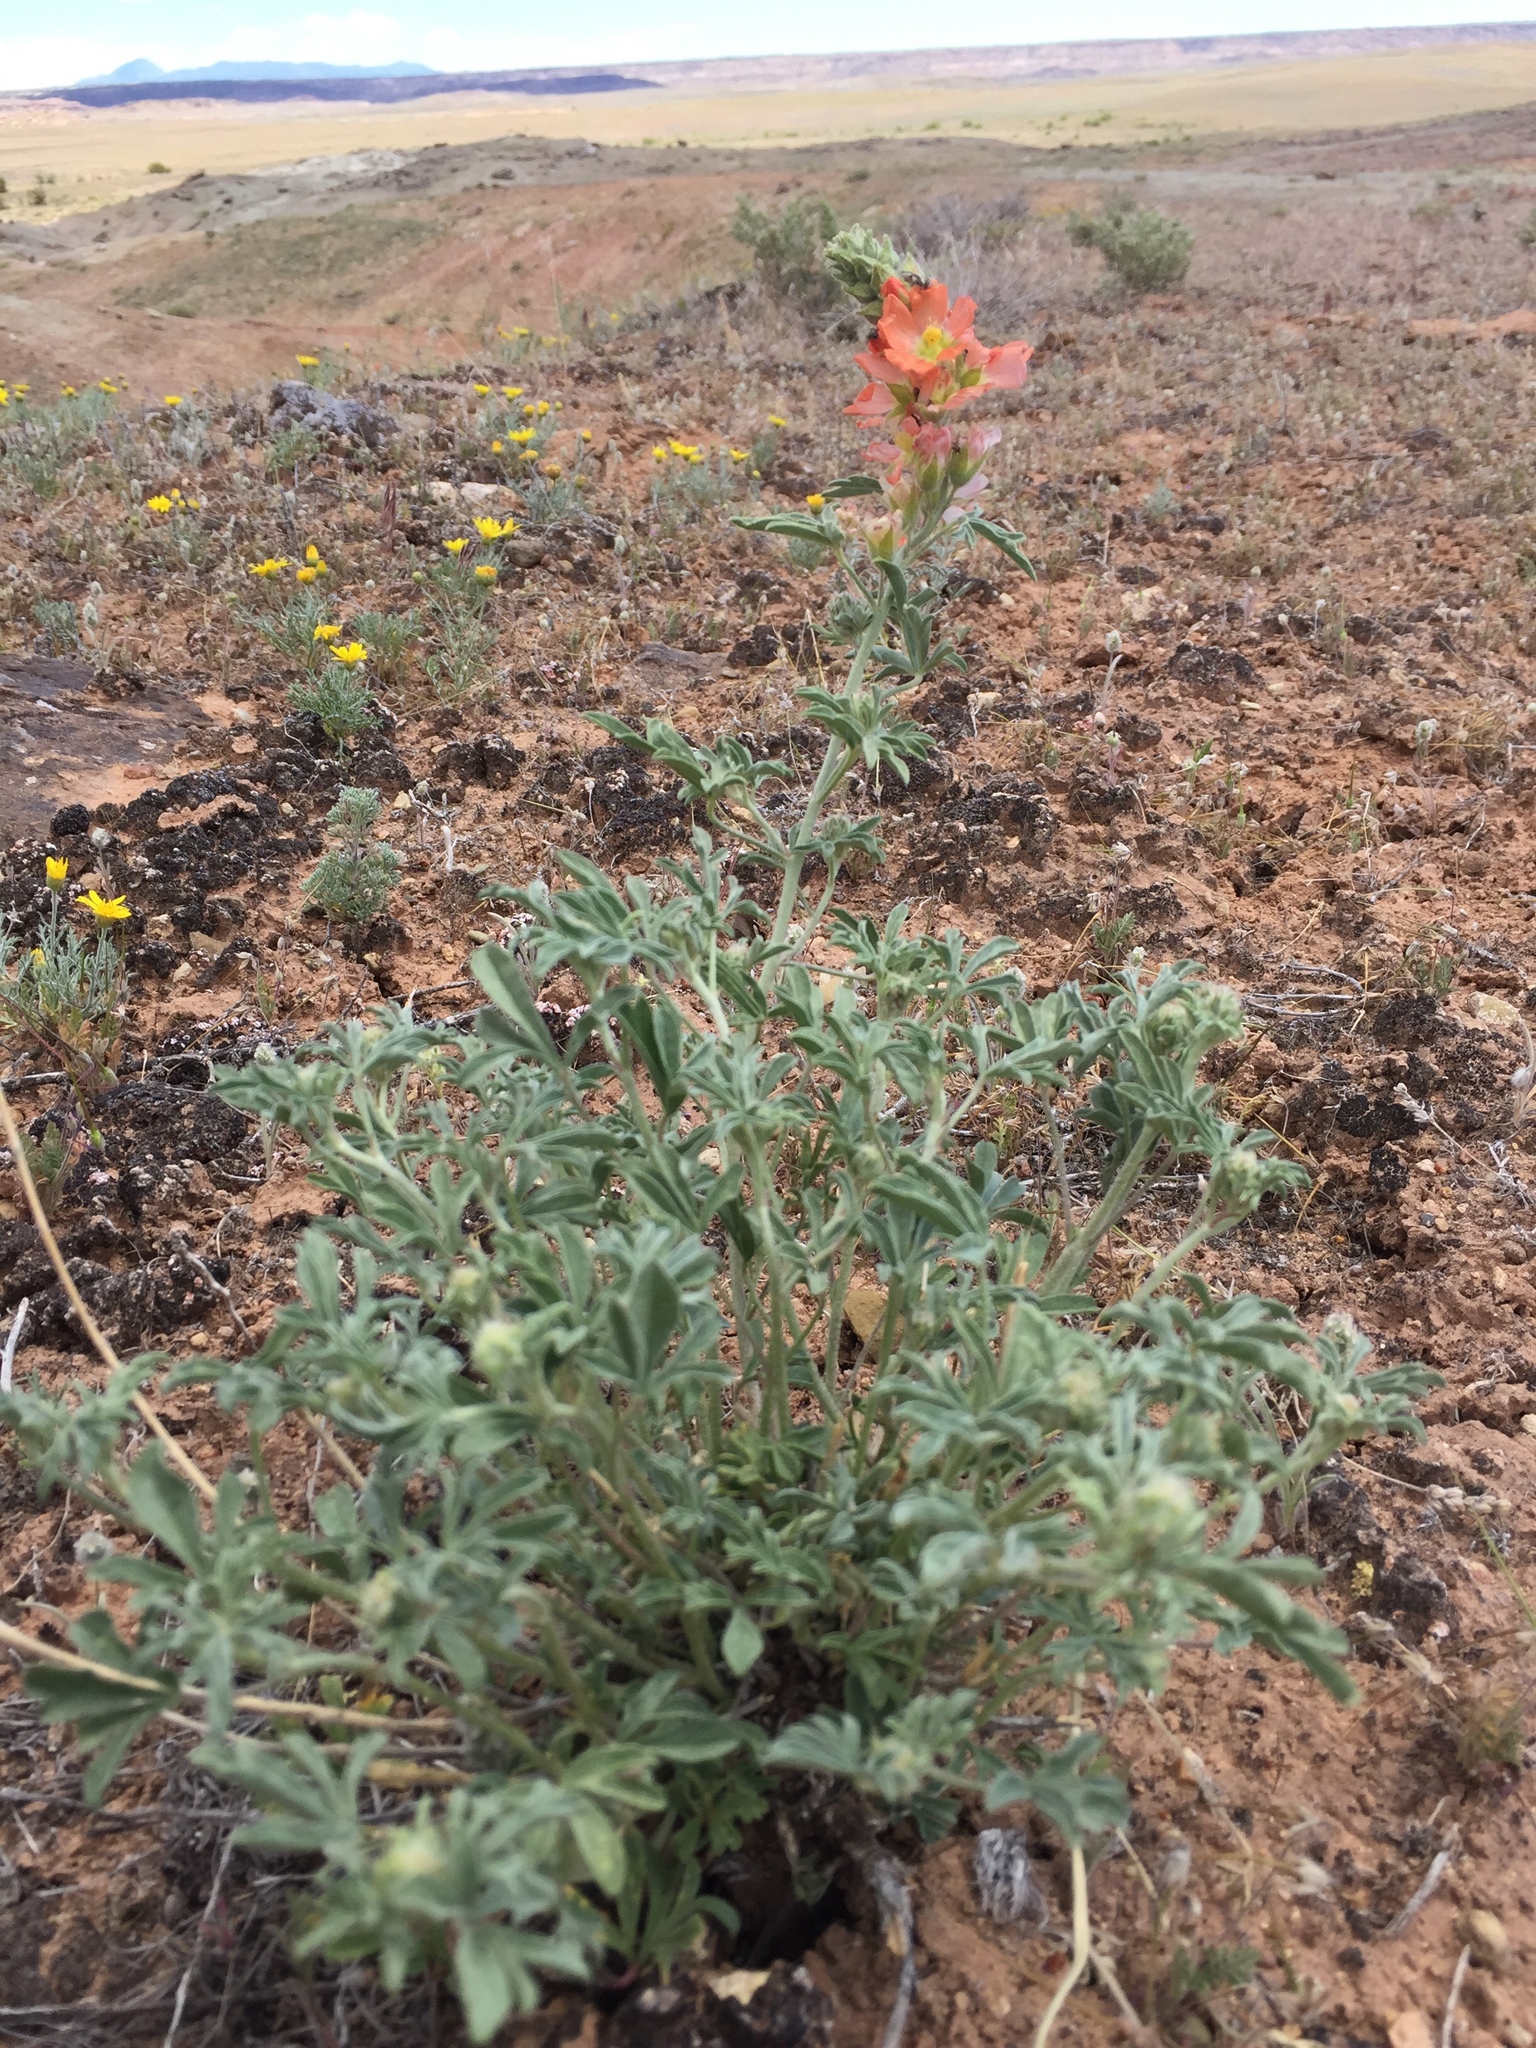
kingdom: Plantae
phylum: Tracheophyta
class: Magnoliopsida
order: Malvales
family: Malvaceae
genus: Sphaeralcea
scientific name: Sphaeralcea coccinea
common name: Moss-rose
